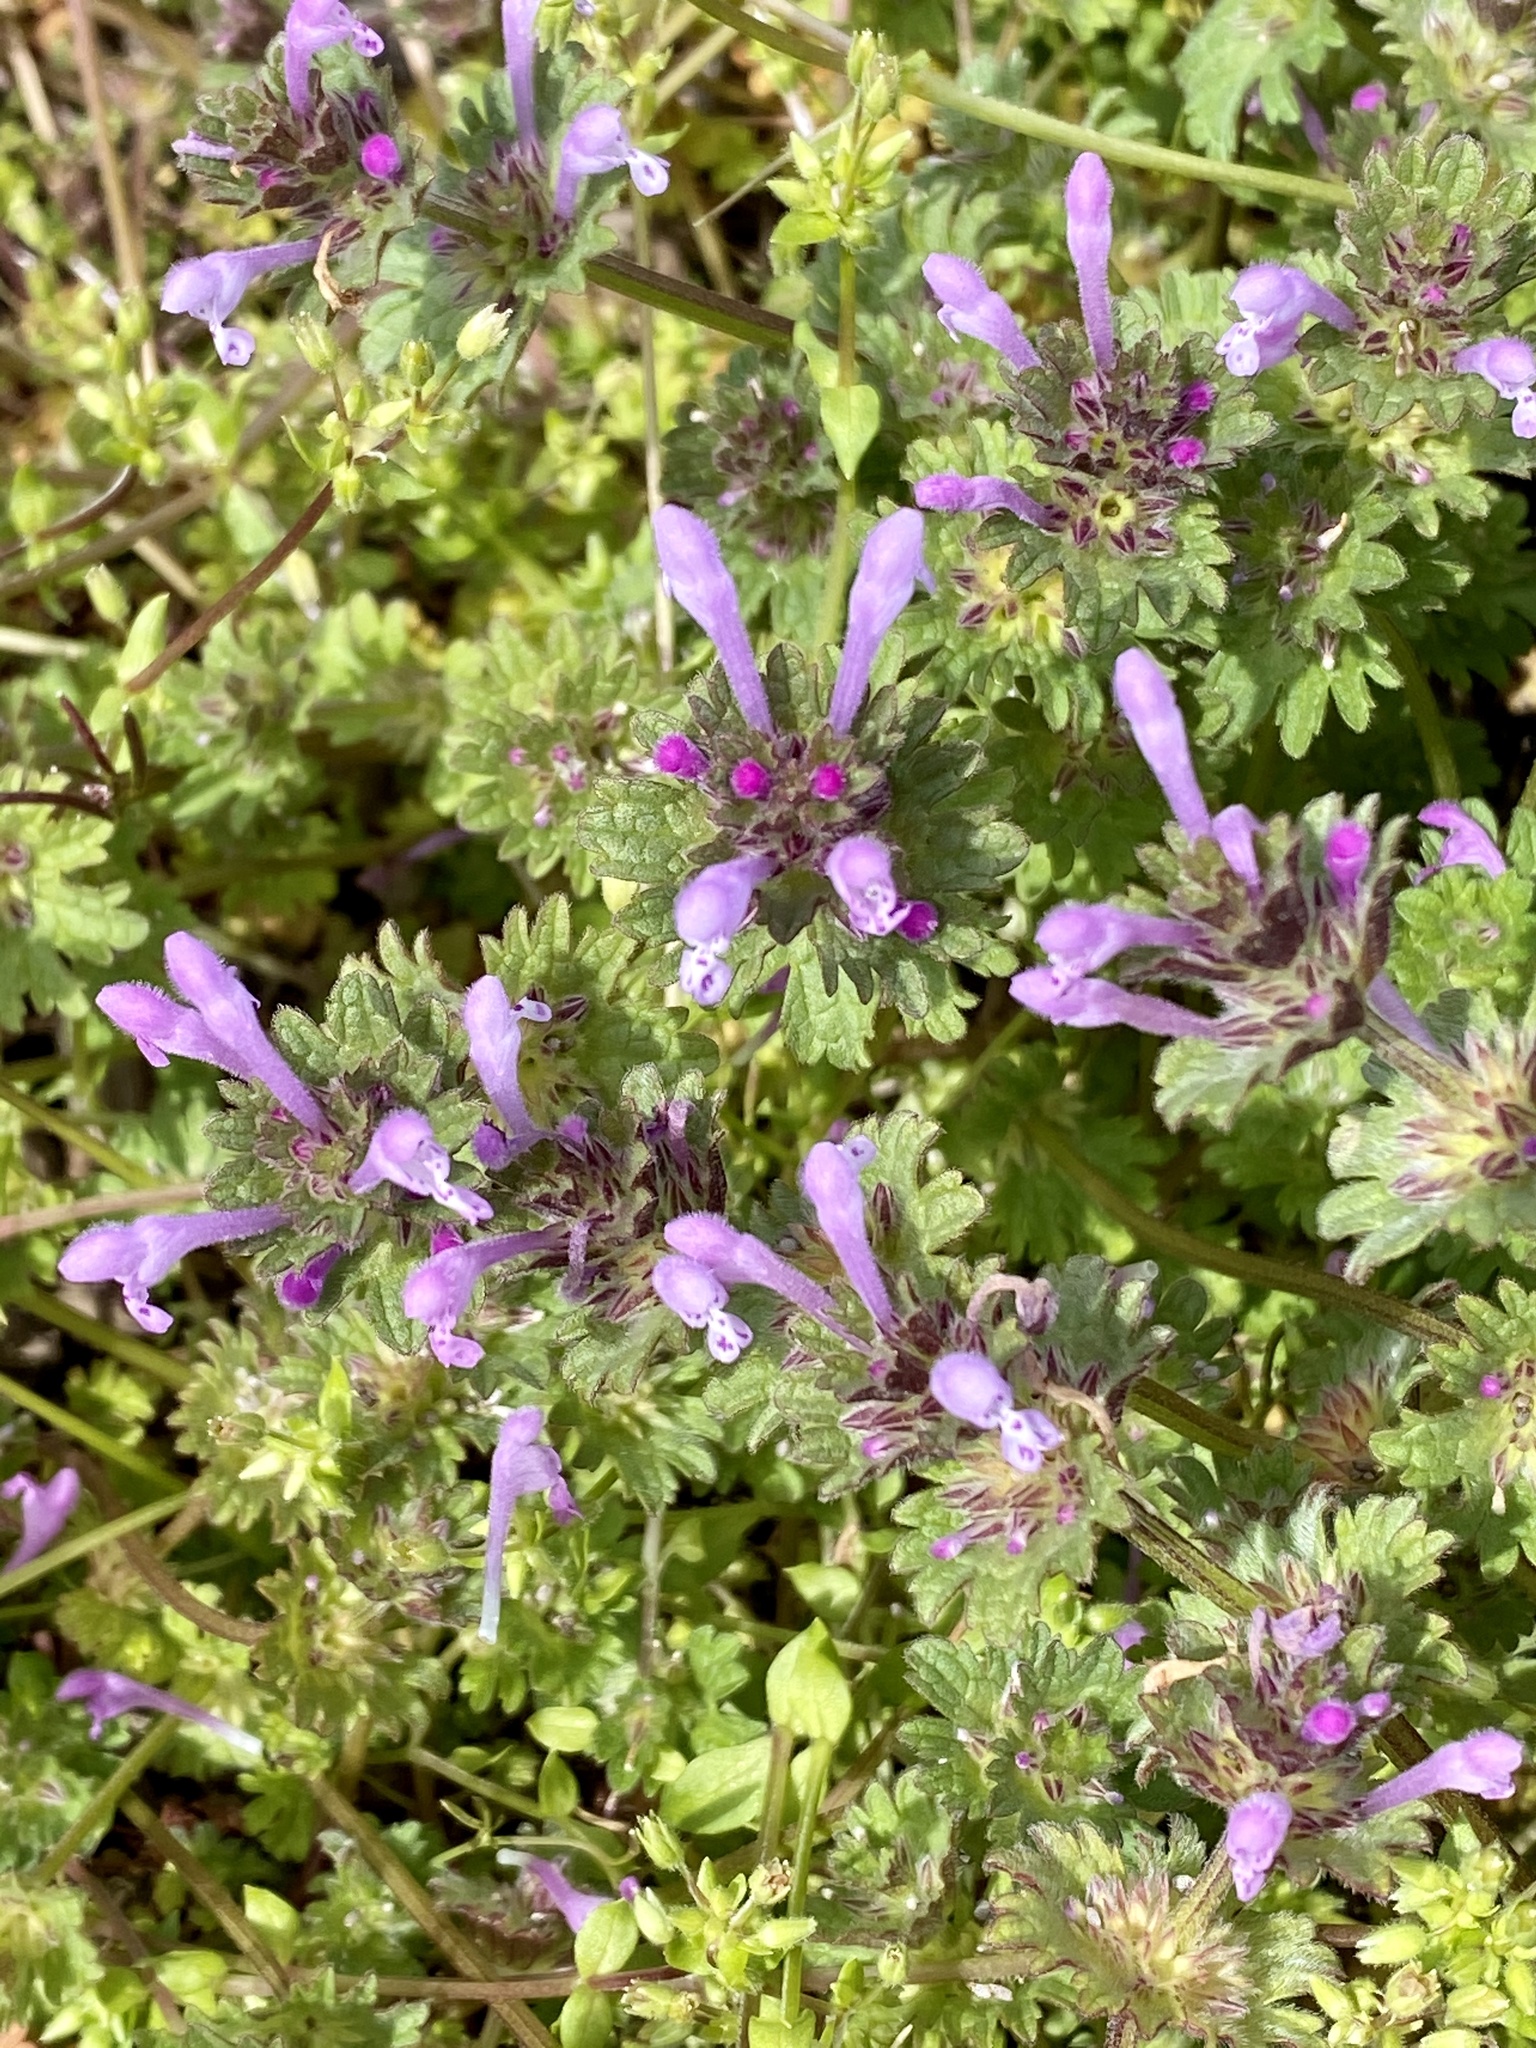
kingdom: Plantae
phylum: Tracheophyta
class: Magnoliopsida
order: Lamiales
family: Lamiaceae
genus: Lamium
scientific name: Lamium amplexicaule
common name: Henbit dead-nettle
